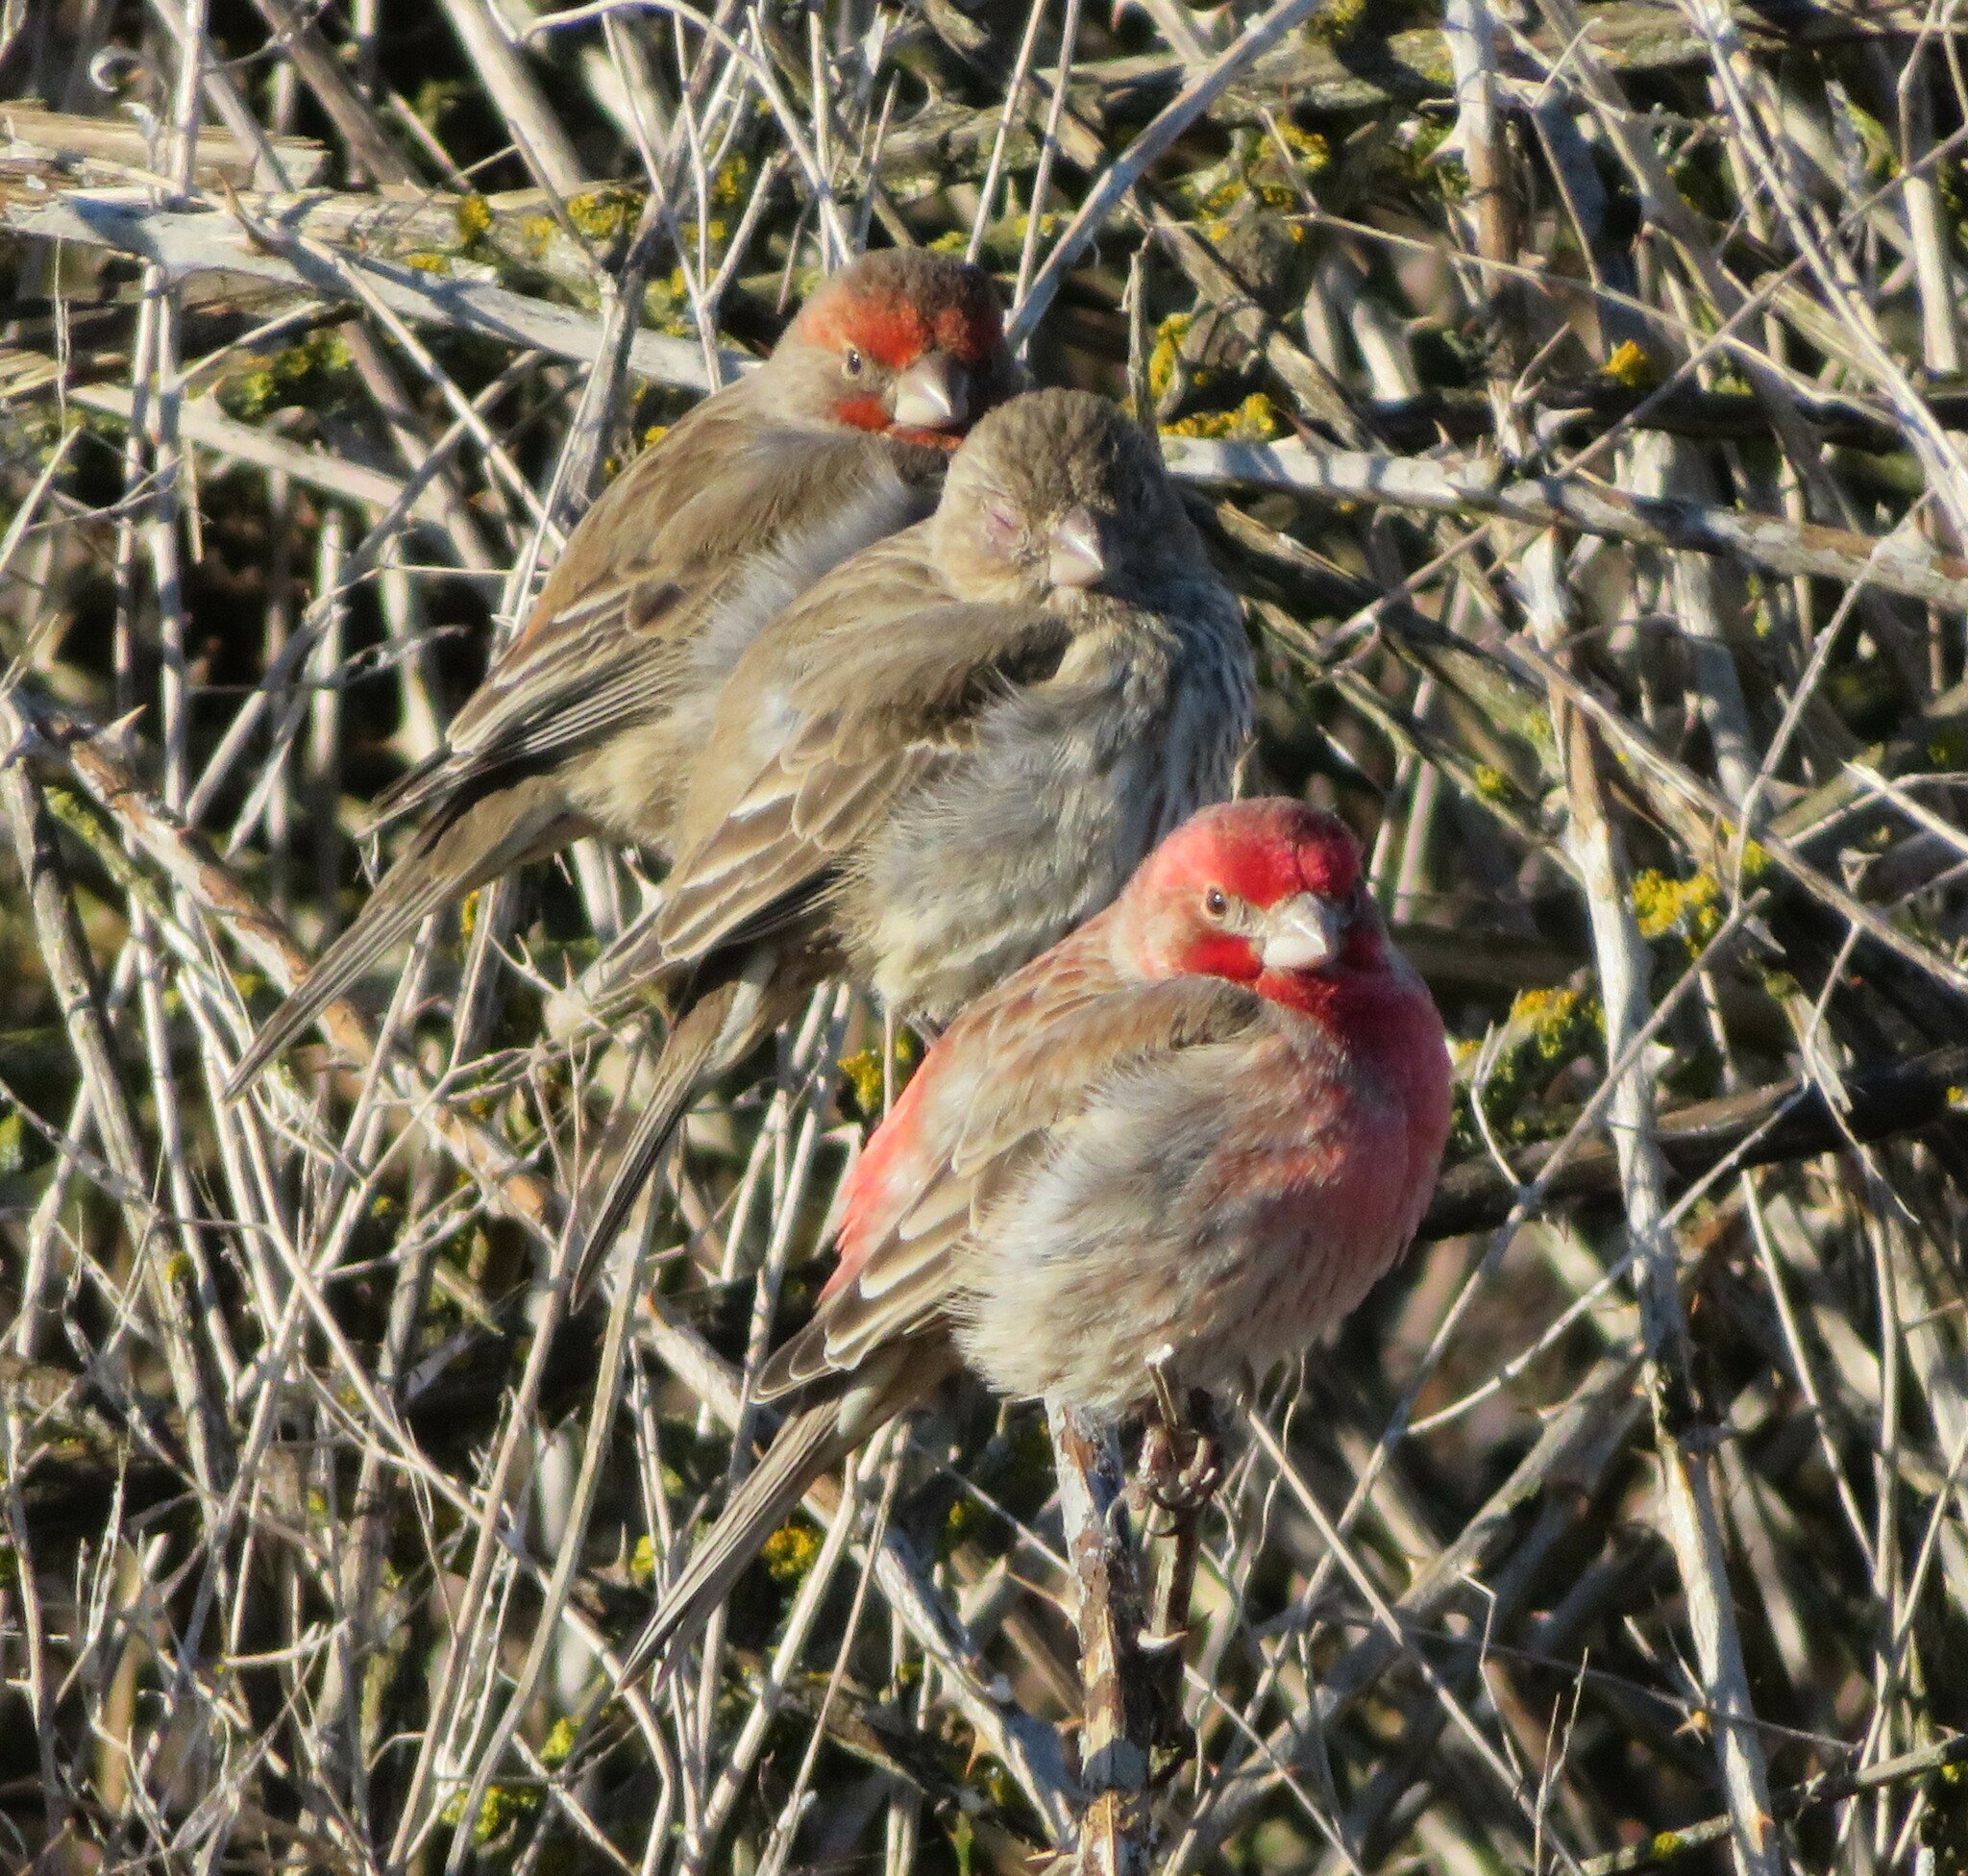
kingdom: Animalia
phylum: Chordata
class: Aves
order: Passeriformes
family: Fringillidae
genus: Haemorhous
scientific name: Haemorhous mexicanus
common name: House finch
